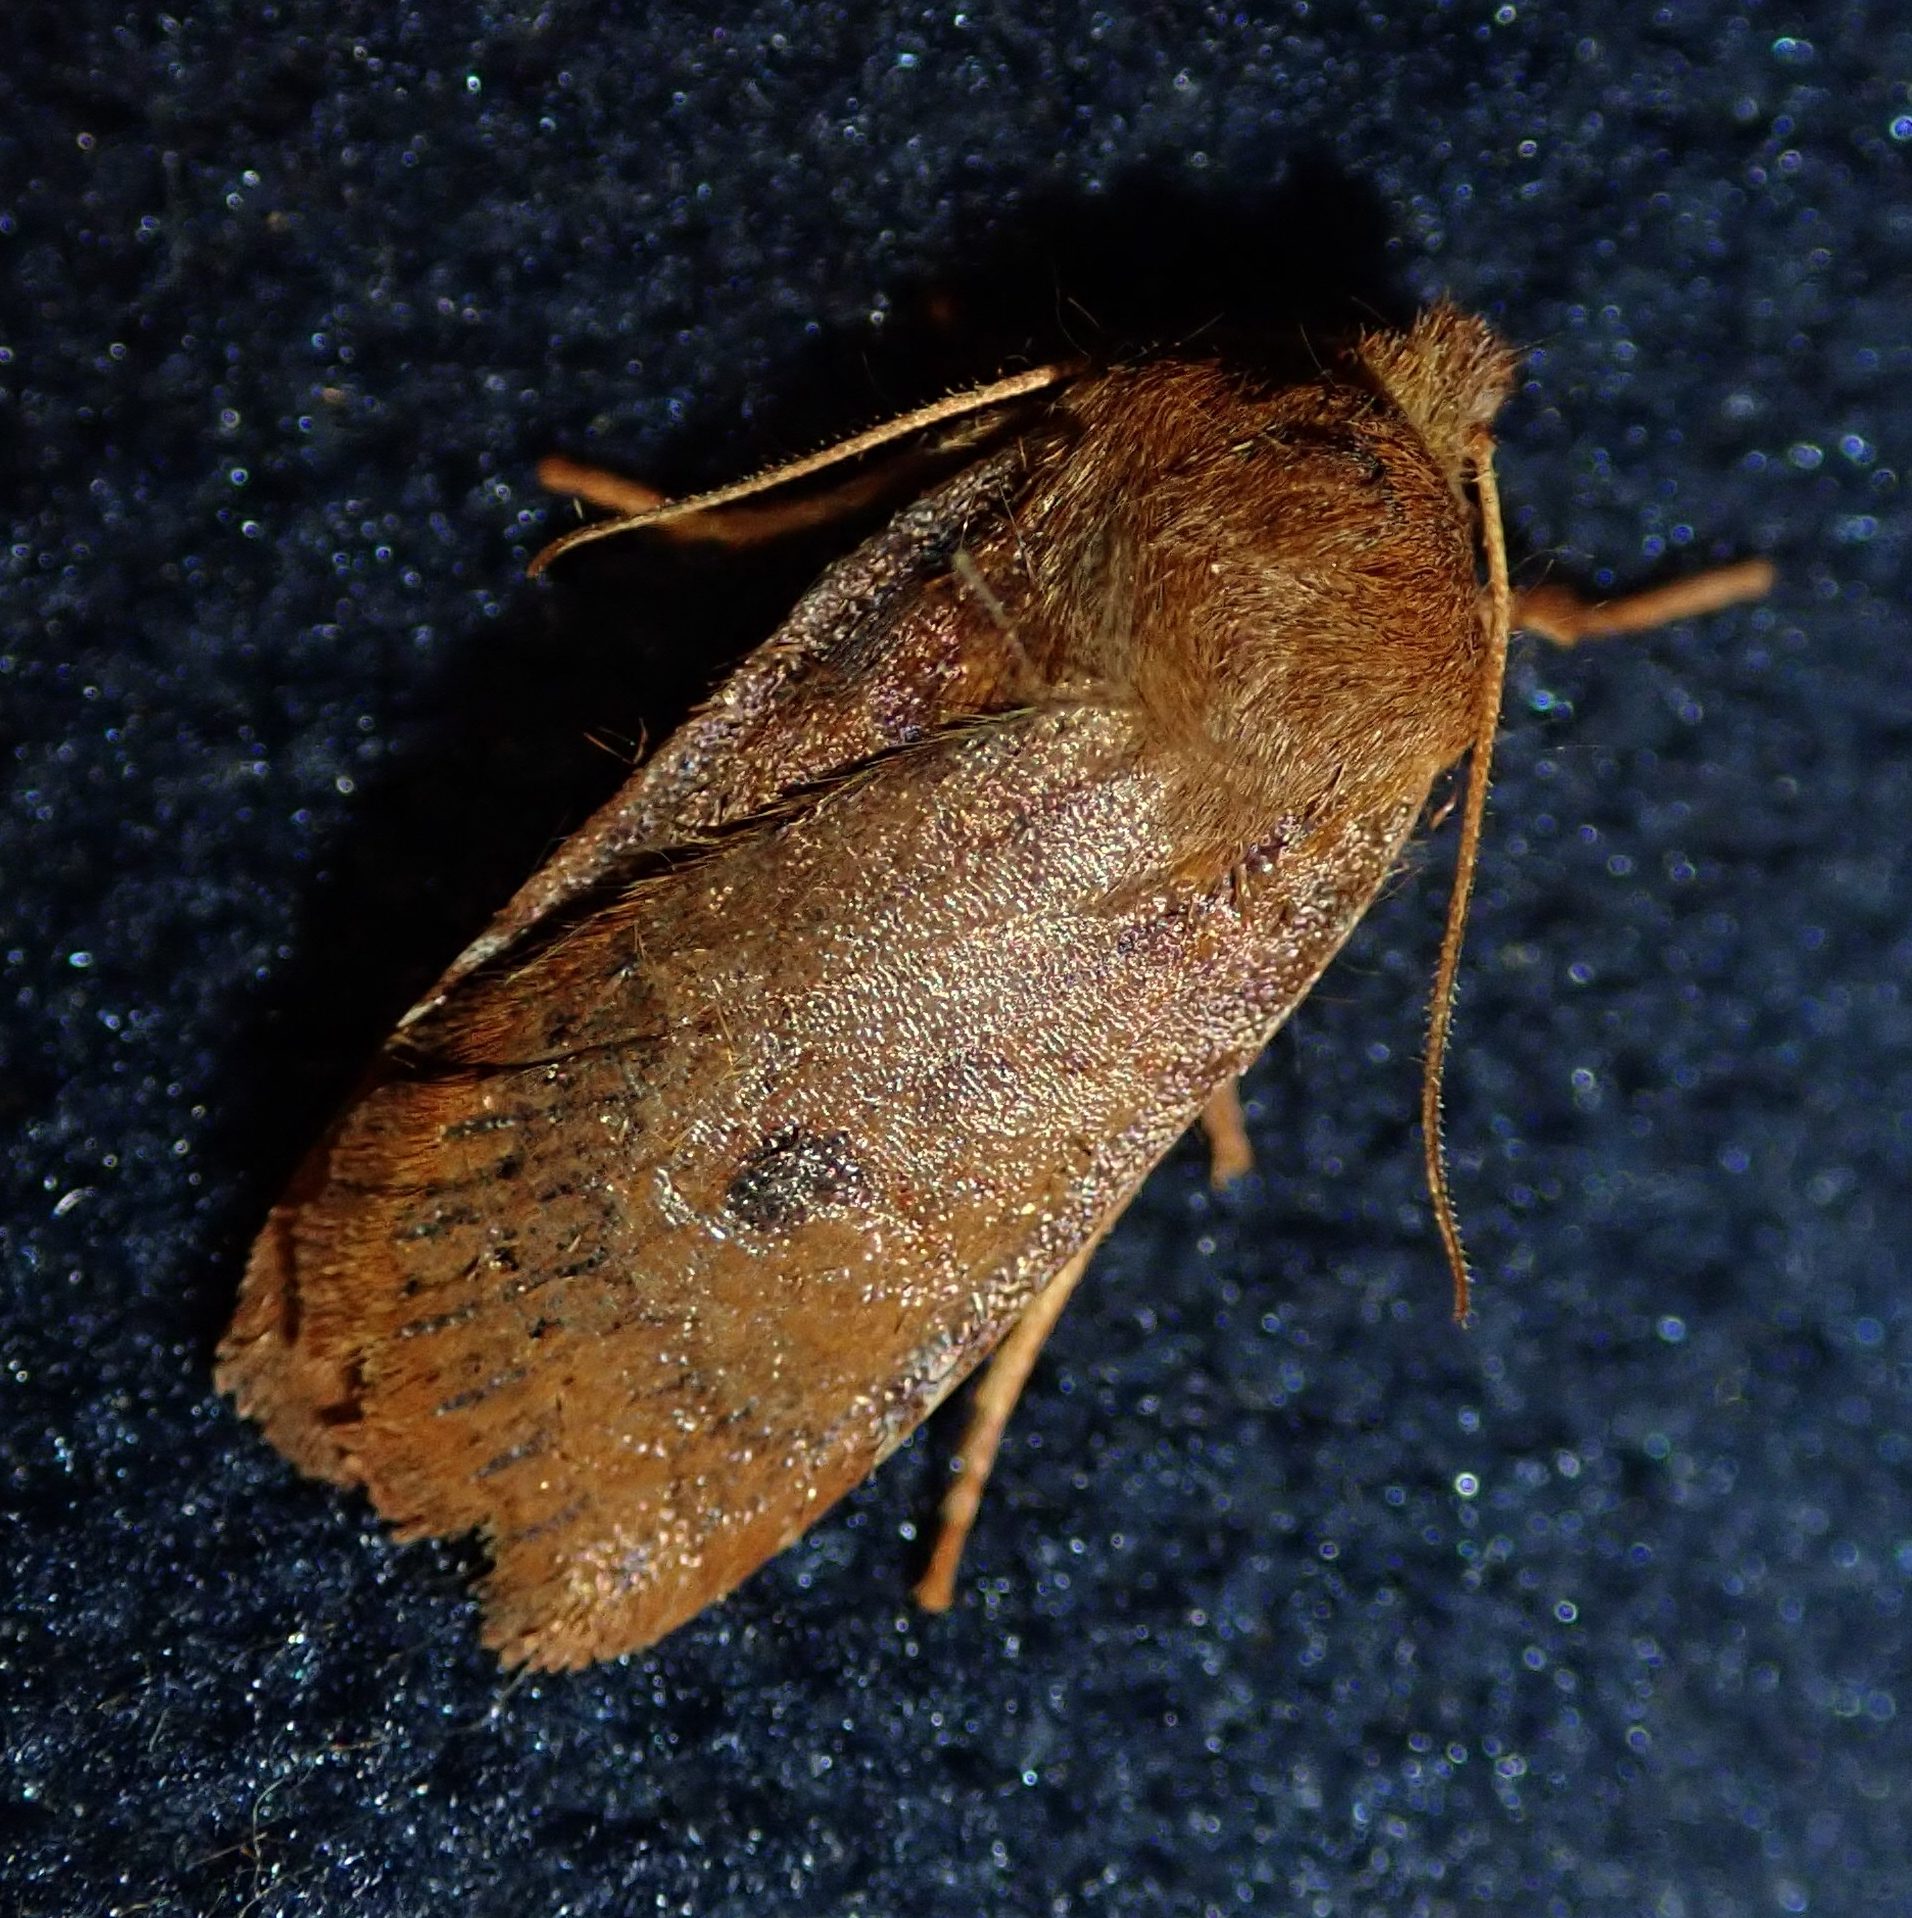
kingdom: Animalia
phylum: Arthropoda
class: Insecta
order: Lepidoptera
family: Noctuidae
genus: Conistra
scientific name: Conistra vaccinii
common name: Chestnut
